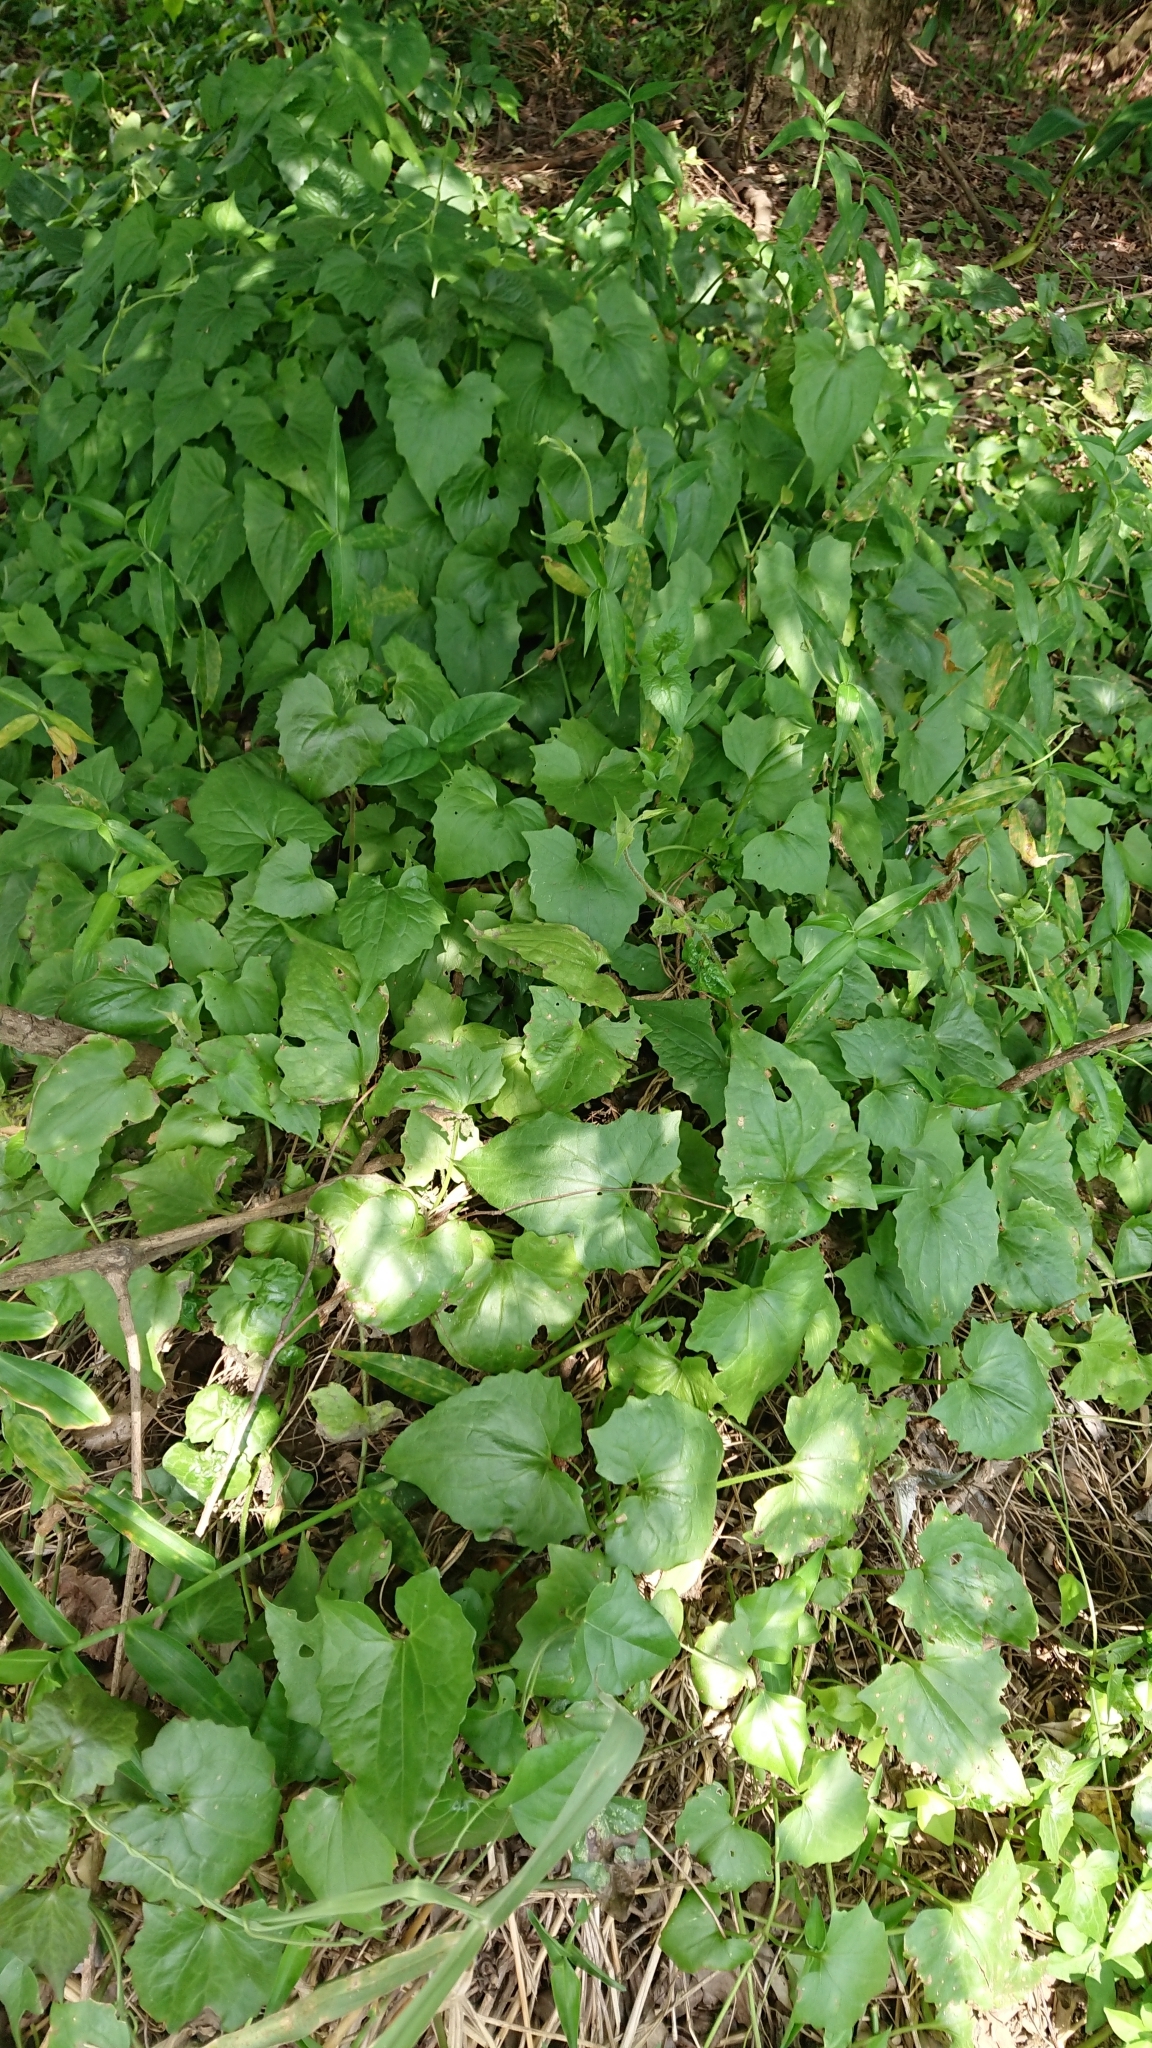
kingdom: Plantae
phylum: Tracheophyta
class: Magnoliopsida
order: Asterales
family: Asteraceae
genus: Mikania
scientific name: Mikania micrantha
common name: Mile-a-minute
